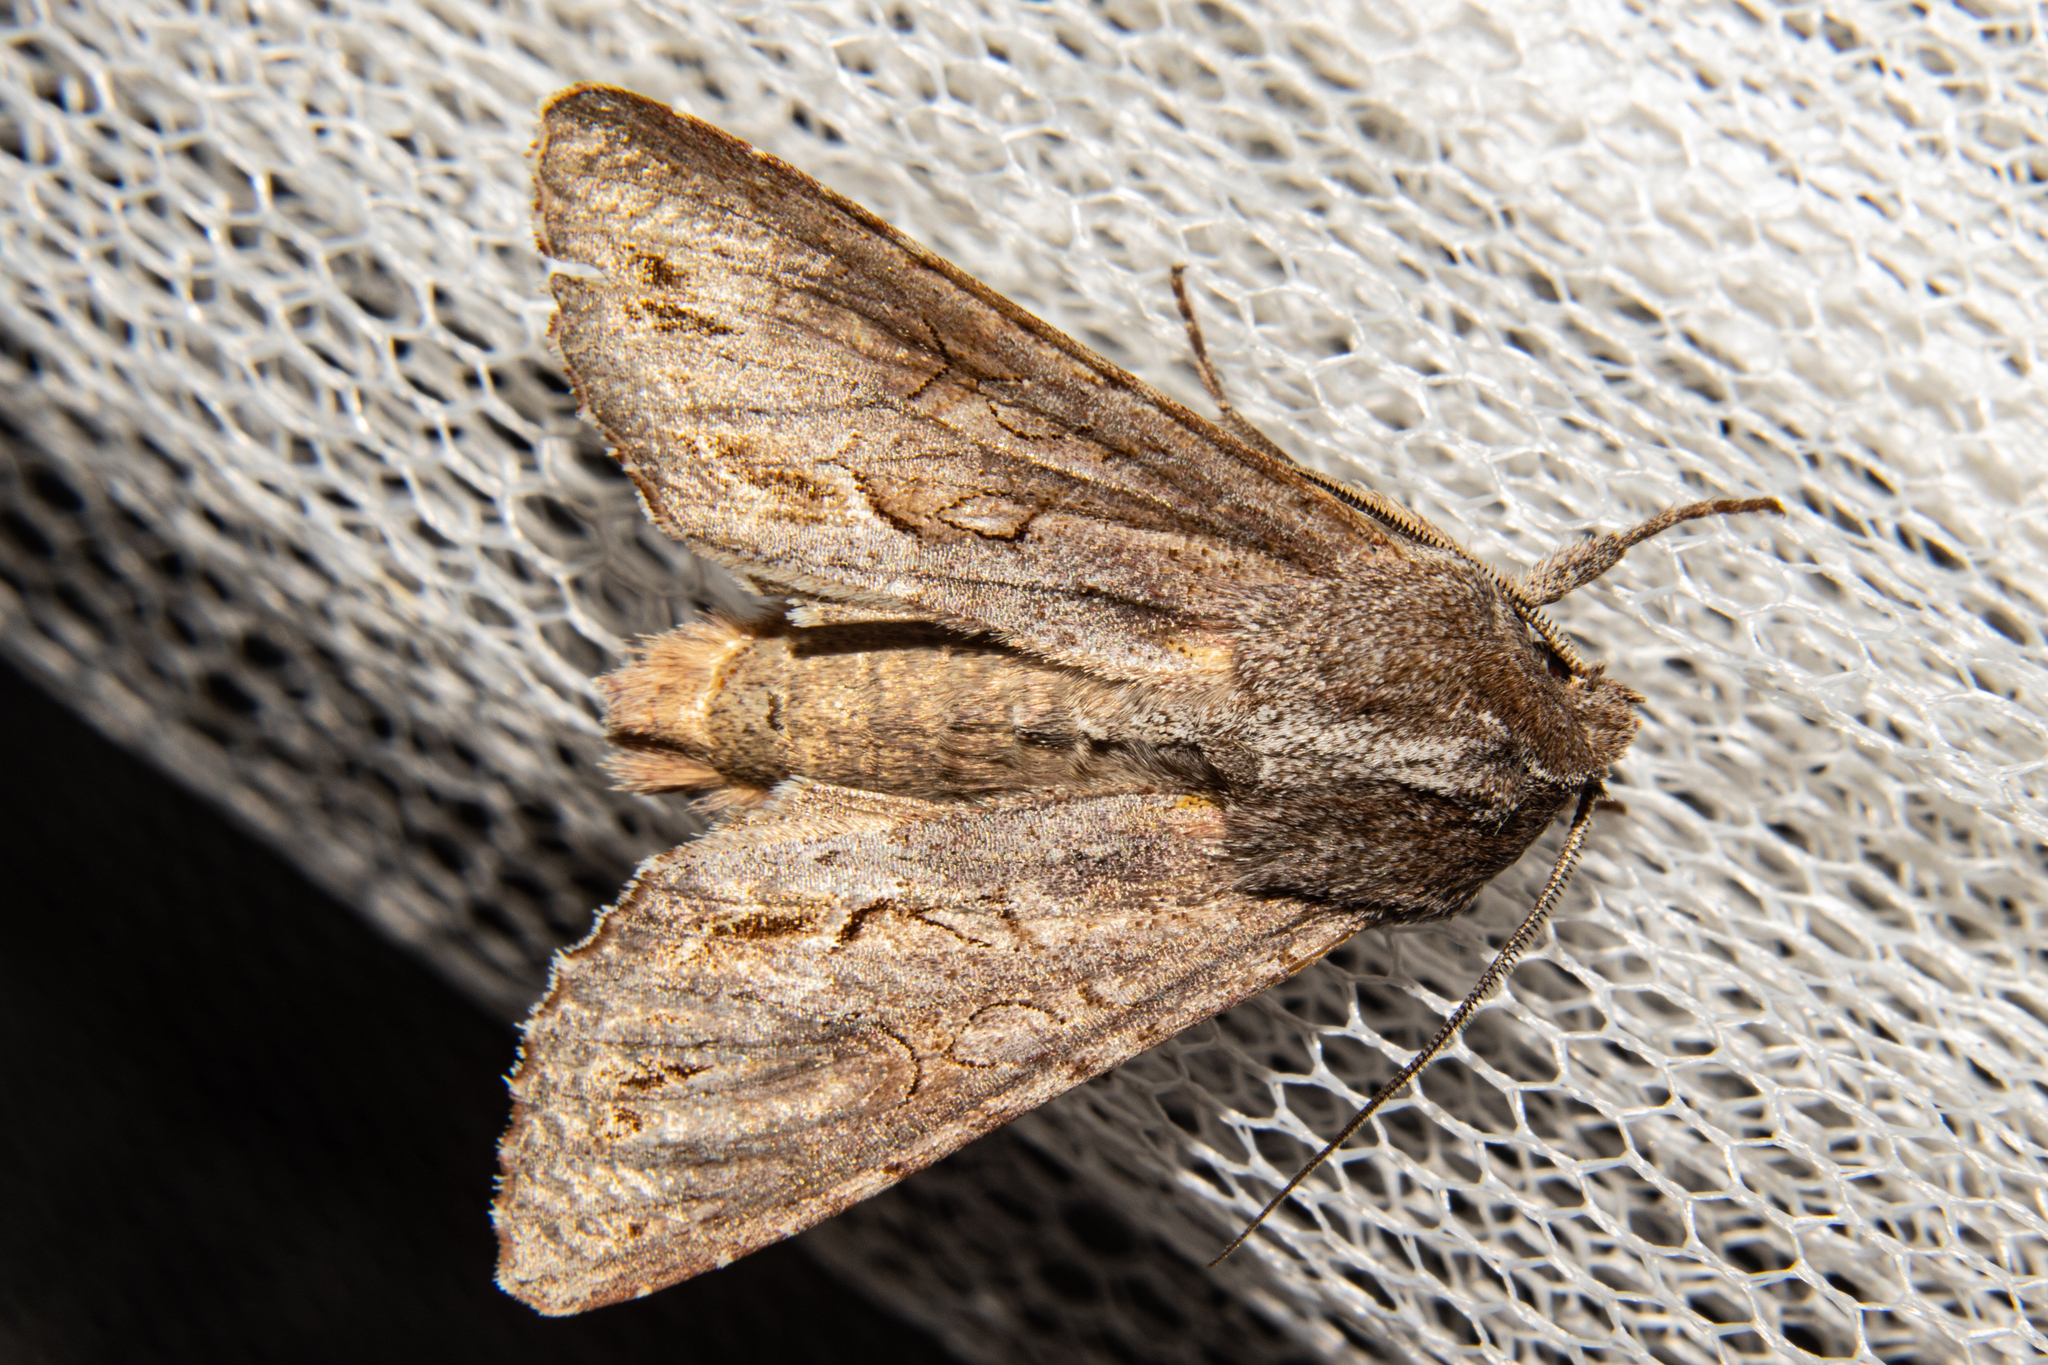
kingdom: Animalia
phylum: Arthropoda
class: Insecta
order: Lepidoptera
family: Noctuidae
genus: Ichneutica
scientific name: Ichneutica
